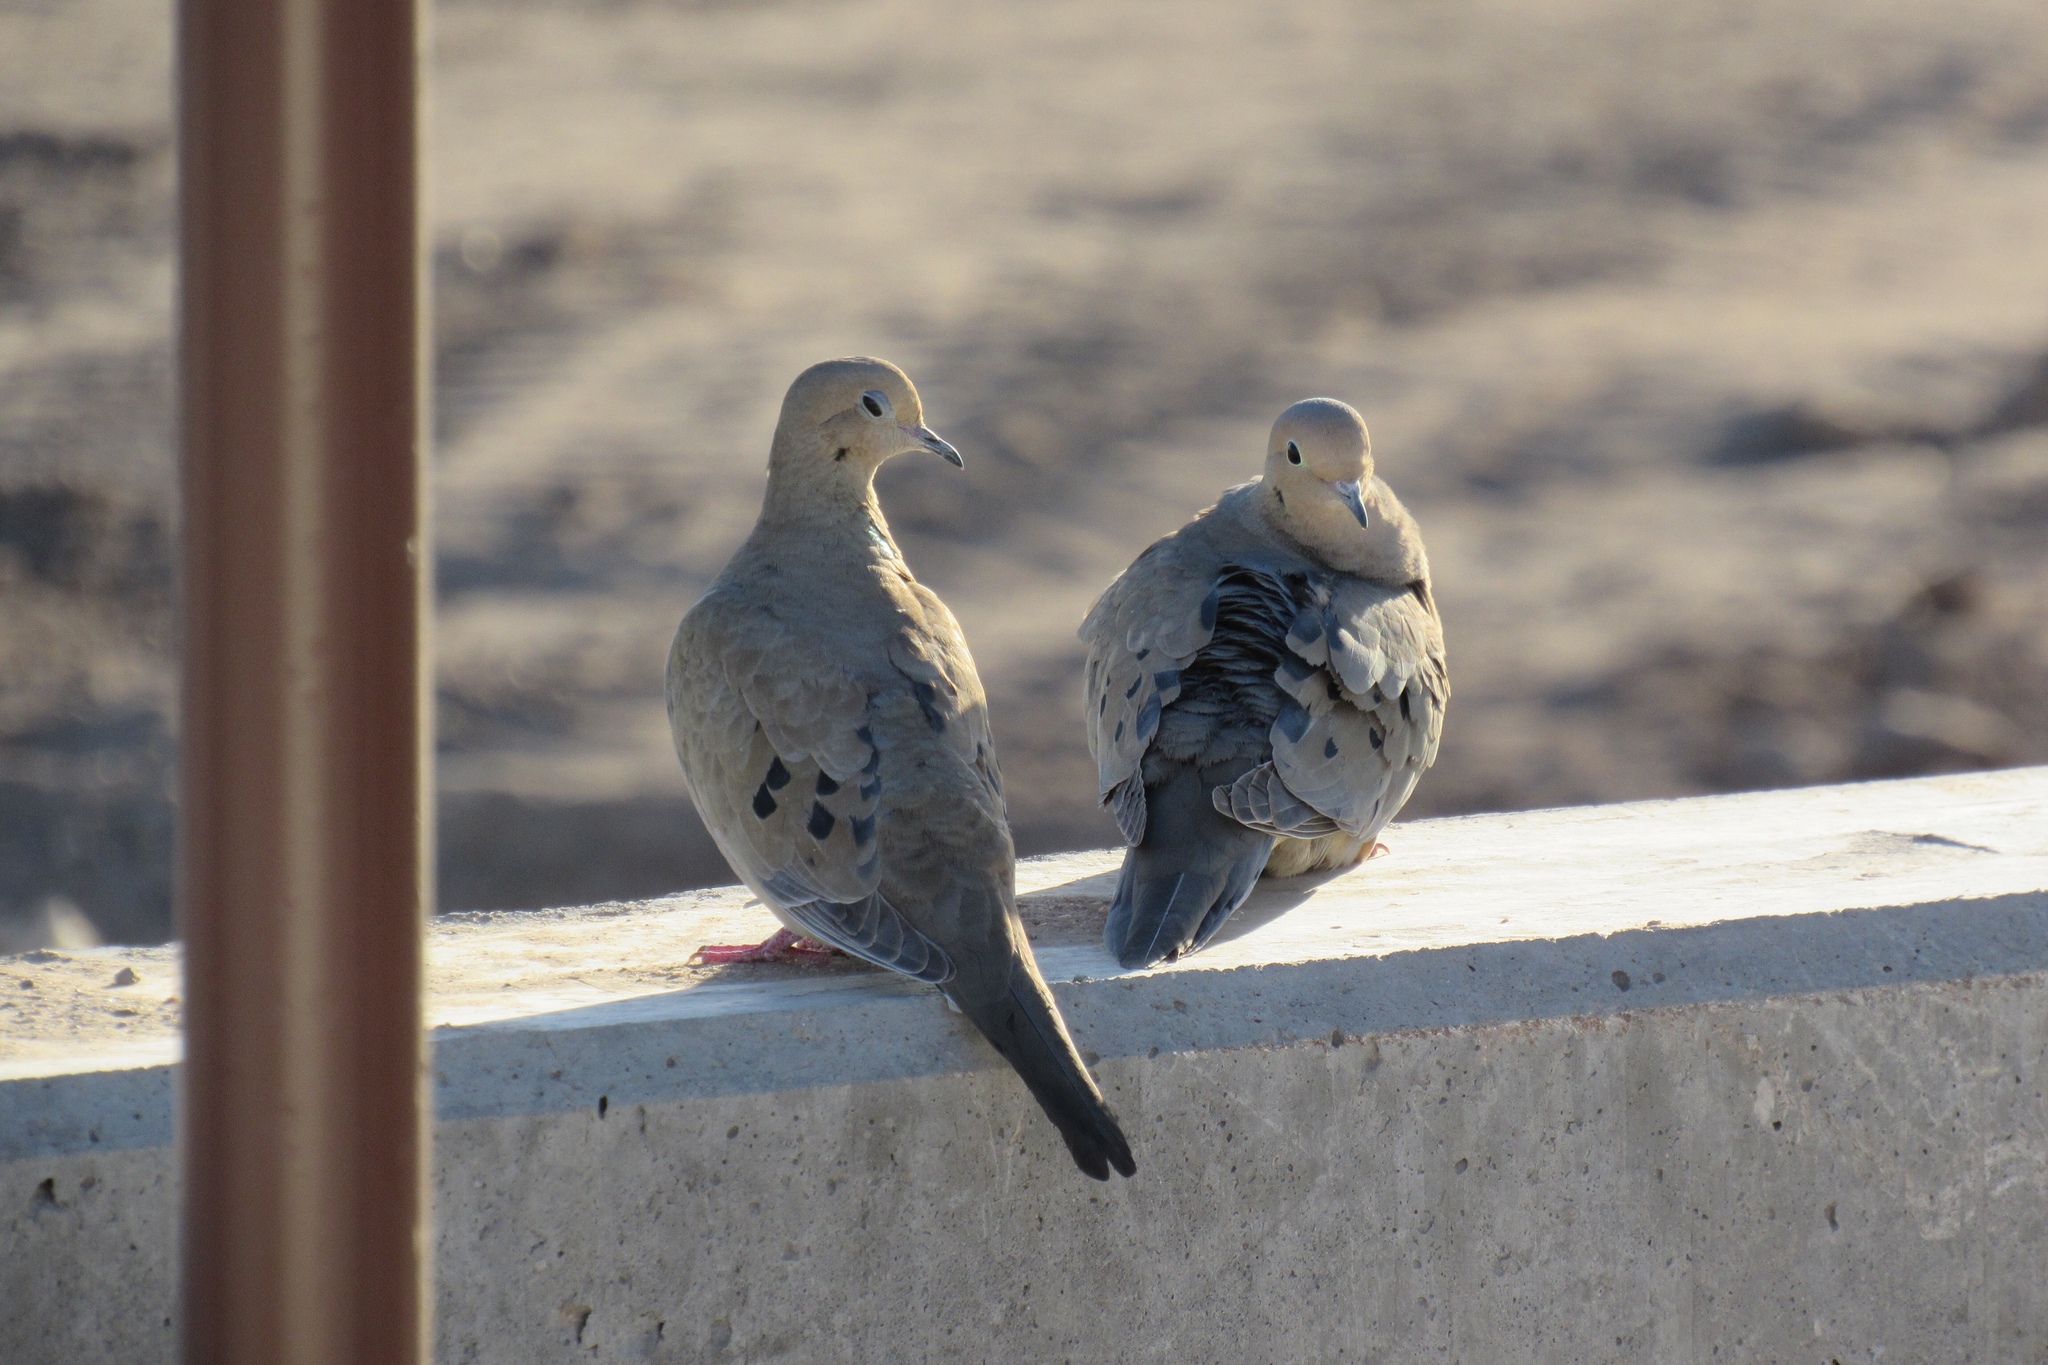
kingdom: Animalia
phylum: Chordata
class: Aves
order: Columbiformes
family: Columbidae
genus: Zenaida
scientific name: Zenaida macroura
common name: Mourning dove
